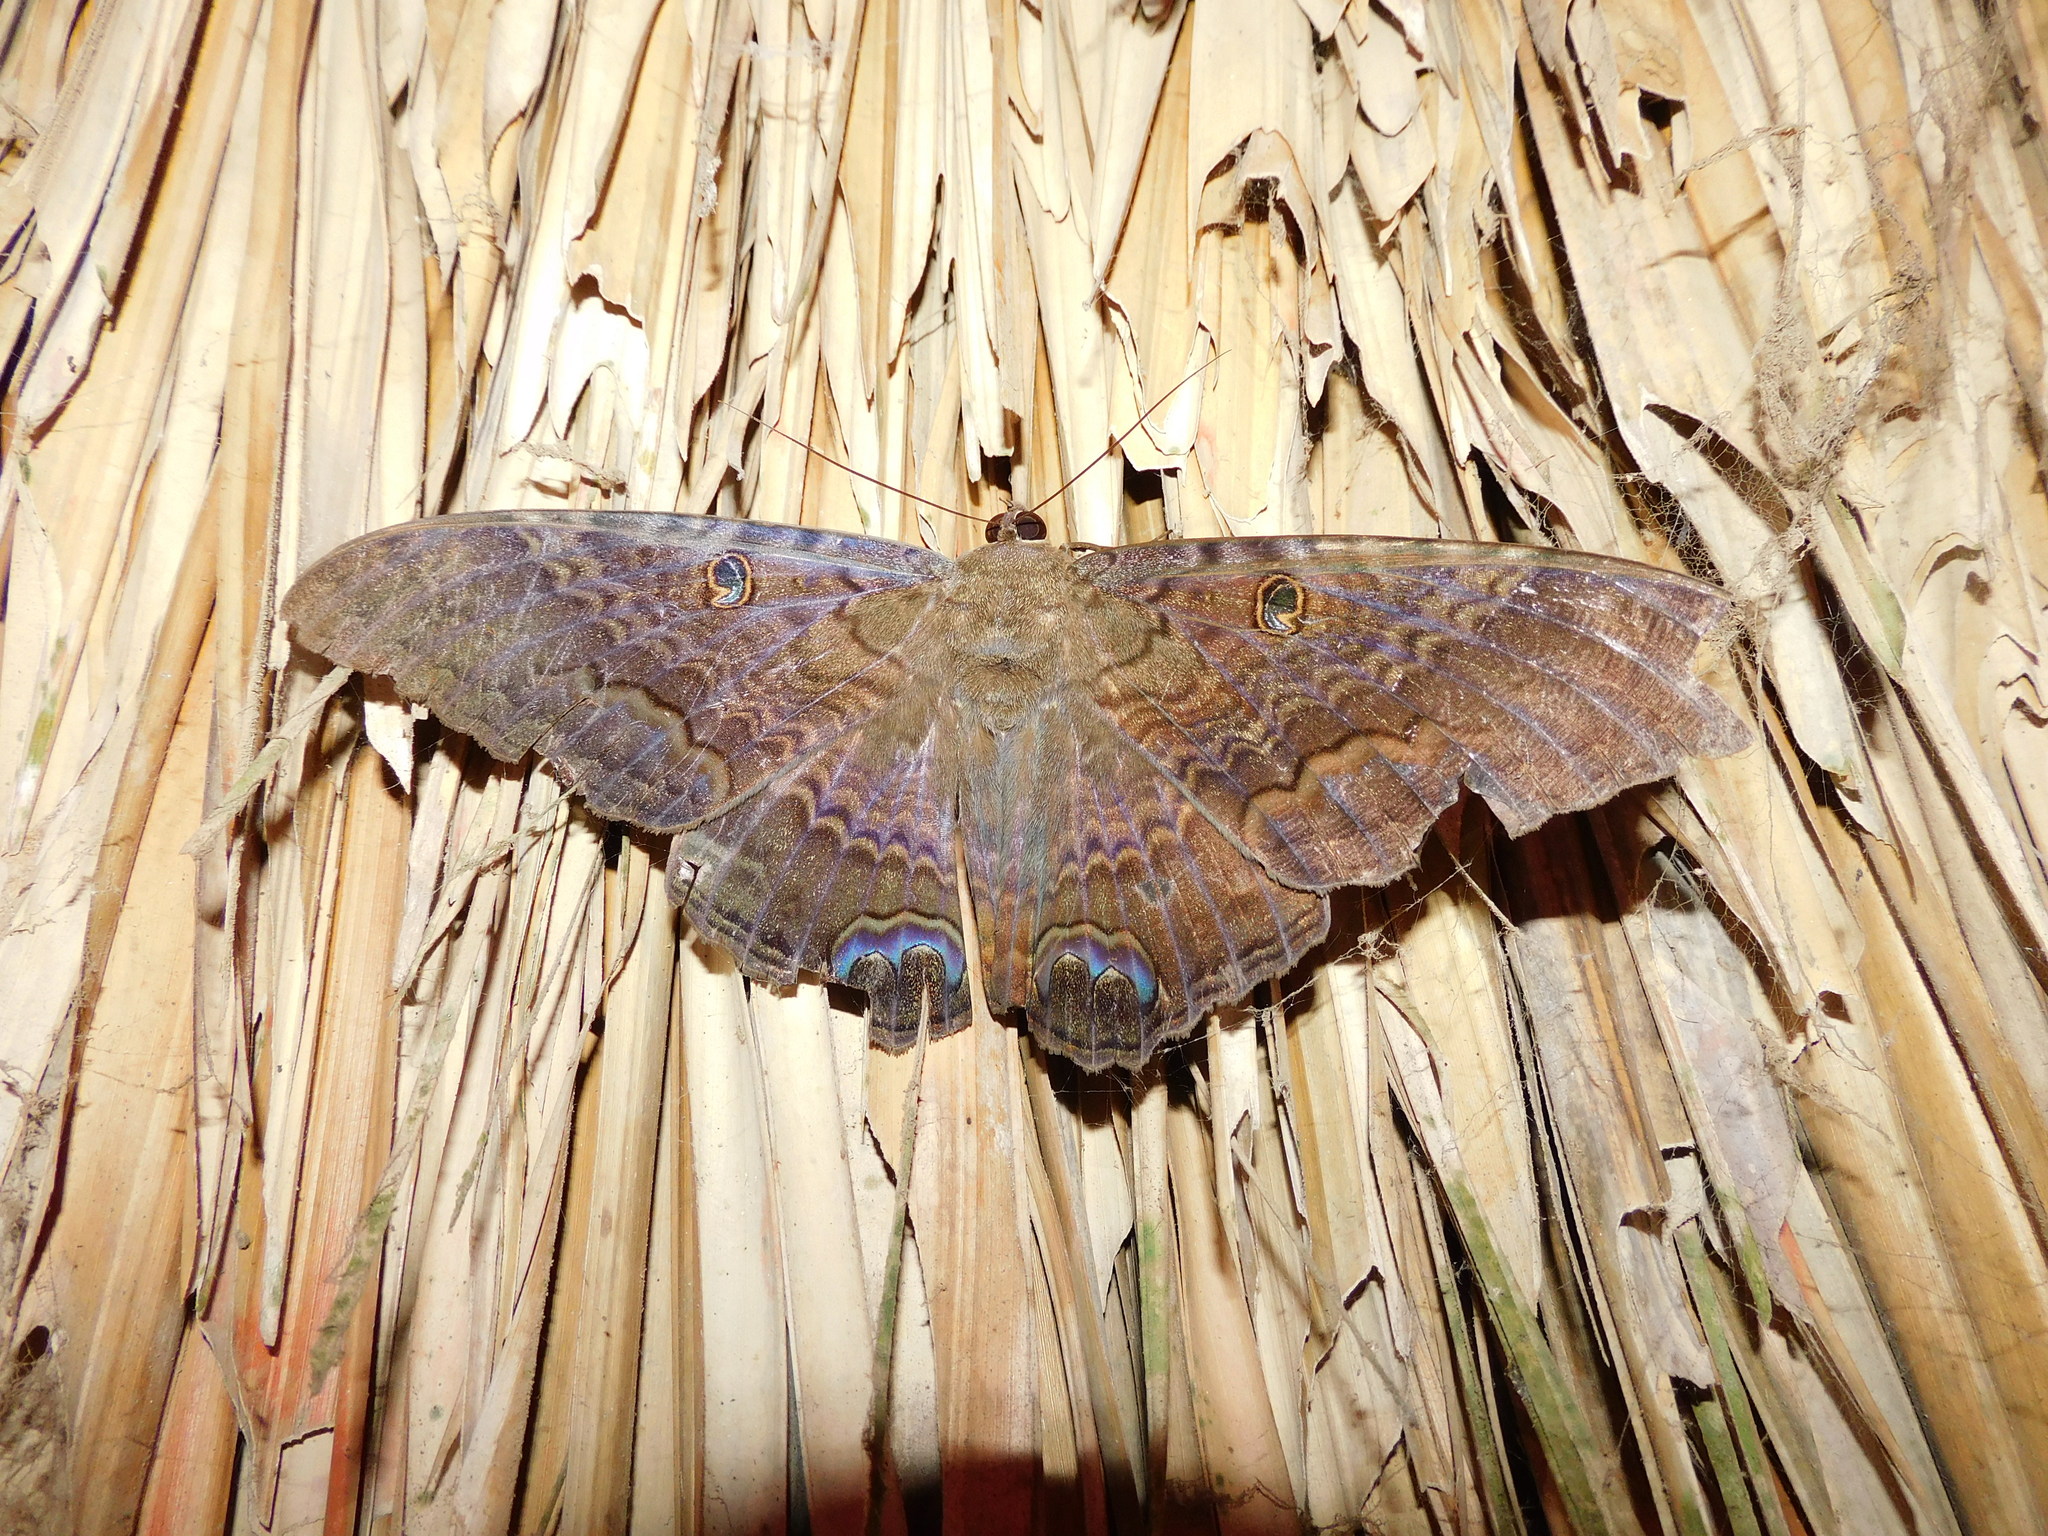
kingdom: Animalia
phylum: Arthropoda
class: Insecta
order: Lepidoptera
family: Erebidae
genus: Ascalapha
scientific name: Ascalapha odorata
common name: Black witch
